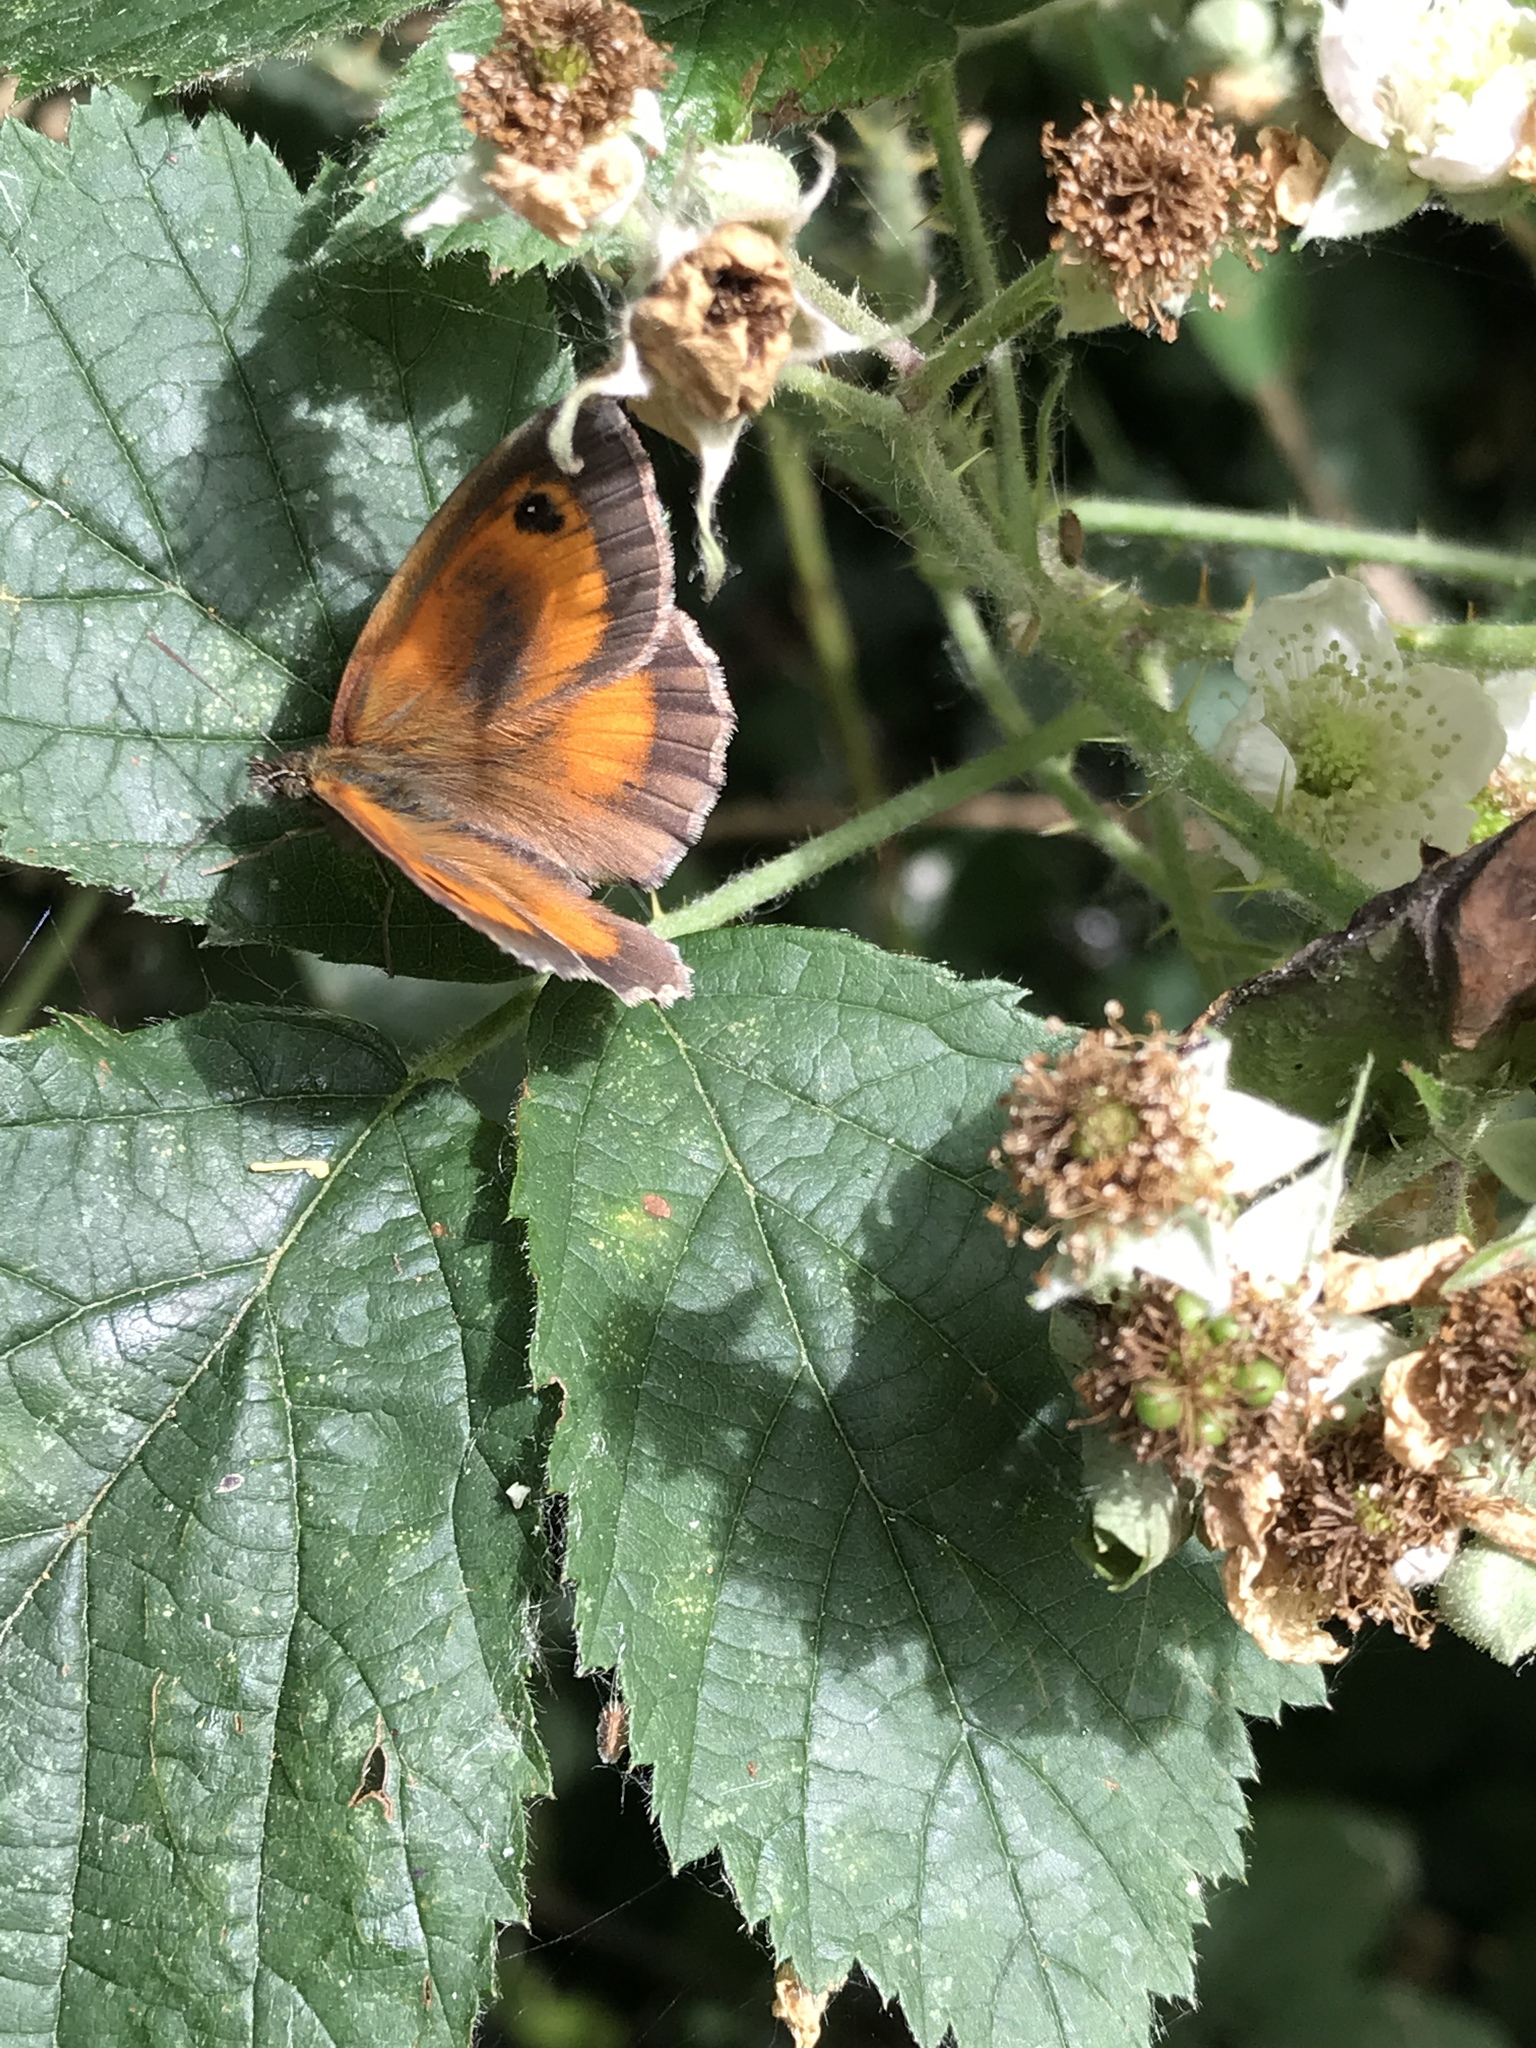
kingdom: Animalia
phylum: Arthropoda
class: Insecta
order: Lepidoptera
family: Nymphalidae
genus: Pyronia
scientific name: Pyronia tithonus
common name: Gatekeeper
